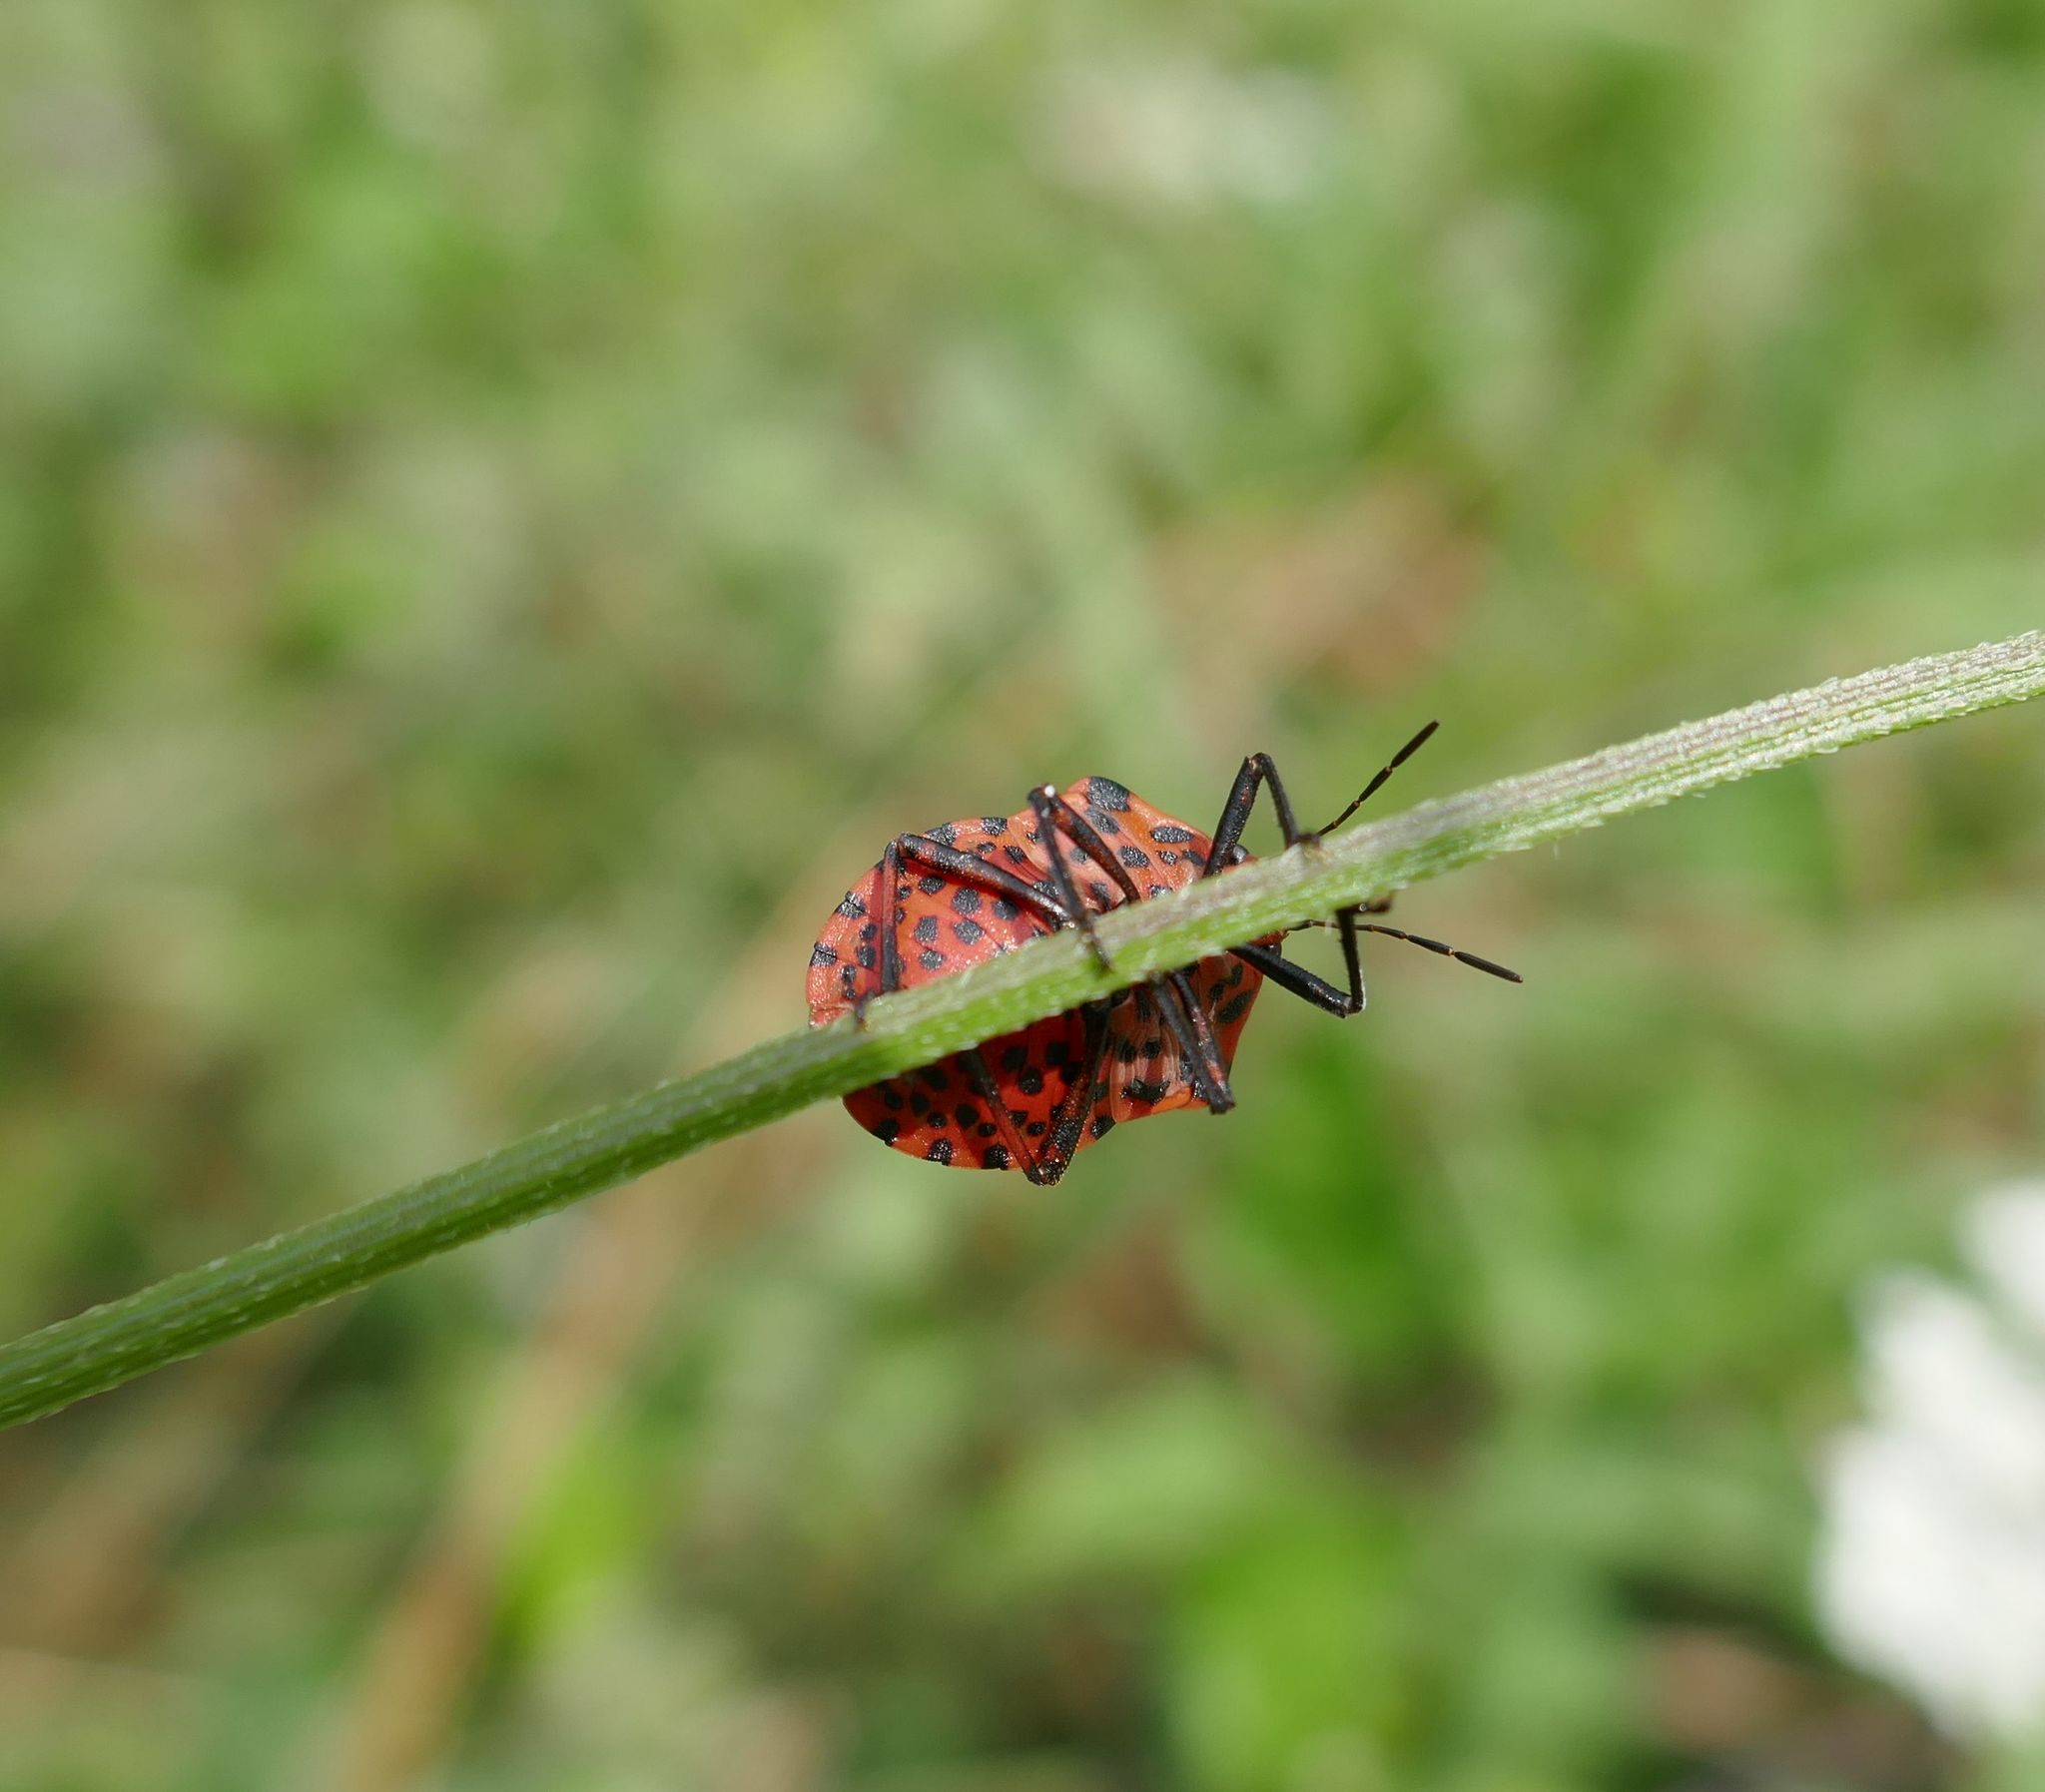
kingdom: Animalia
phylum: Arthropoda
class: Insecta
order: Hemiptera
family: Pentatomidae
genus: Graphosoma
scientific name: Graphosoma italicum
